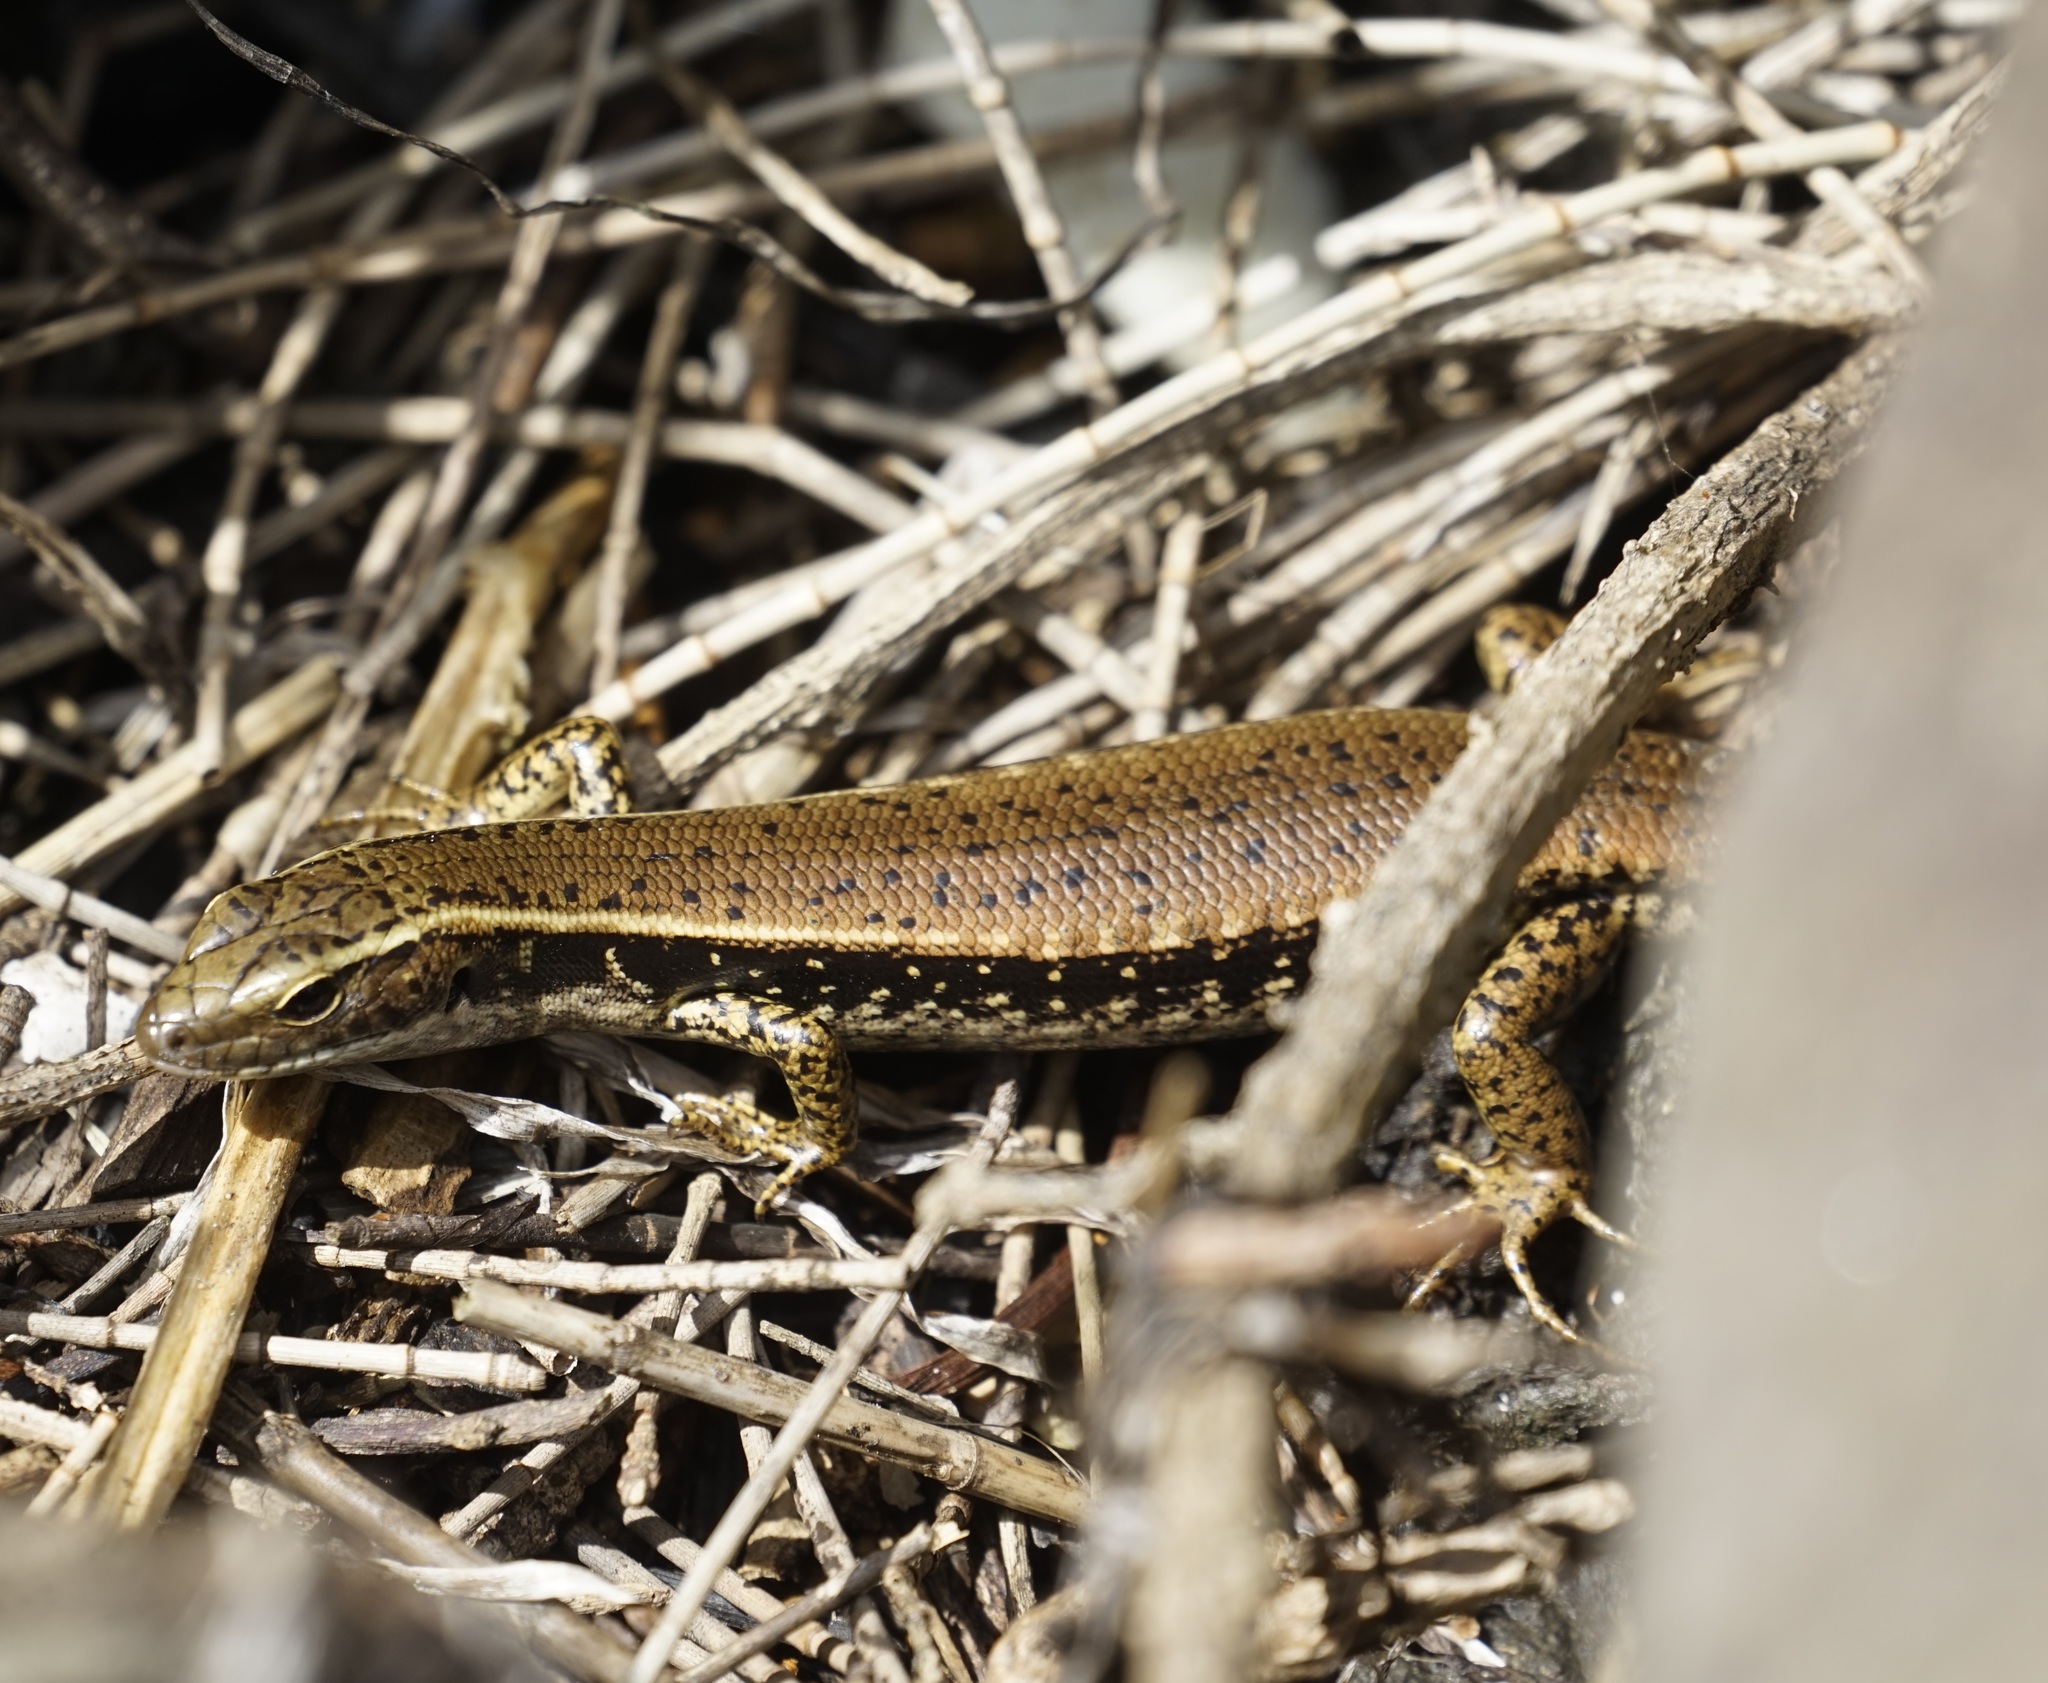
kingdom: Animalia
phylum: Chordata
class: Squamata
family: Scincidae
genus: Eulamprus
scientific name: Eulamprus quoyii
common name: Eastern water skink
